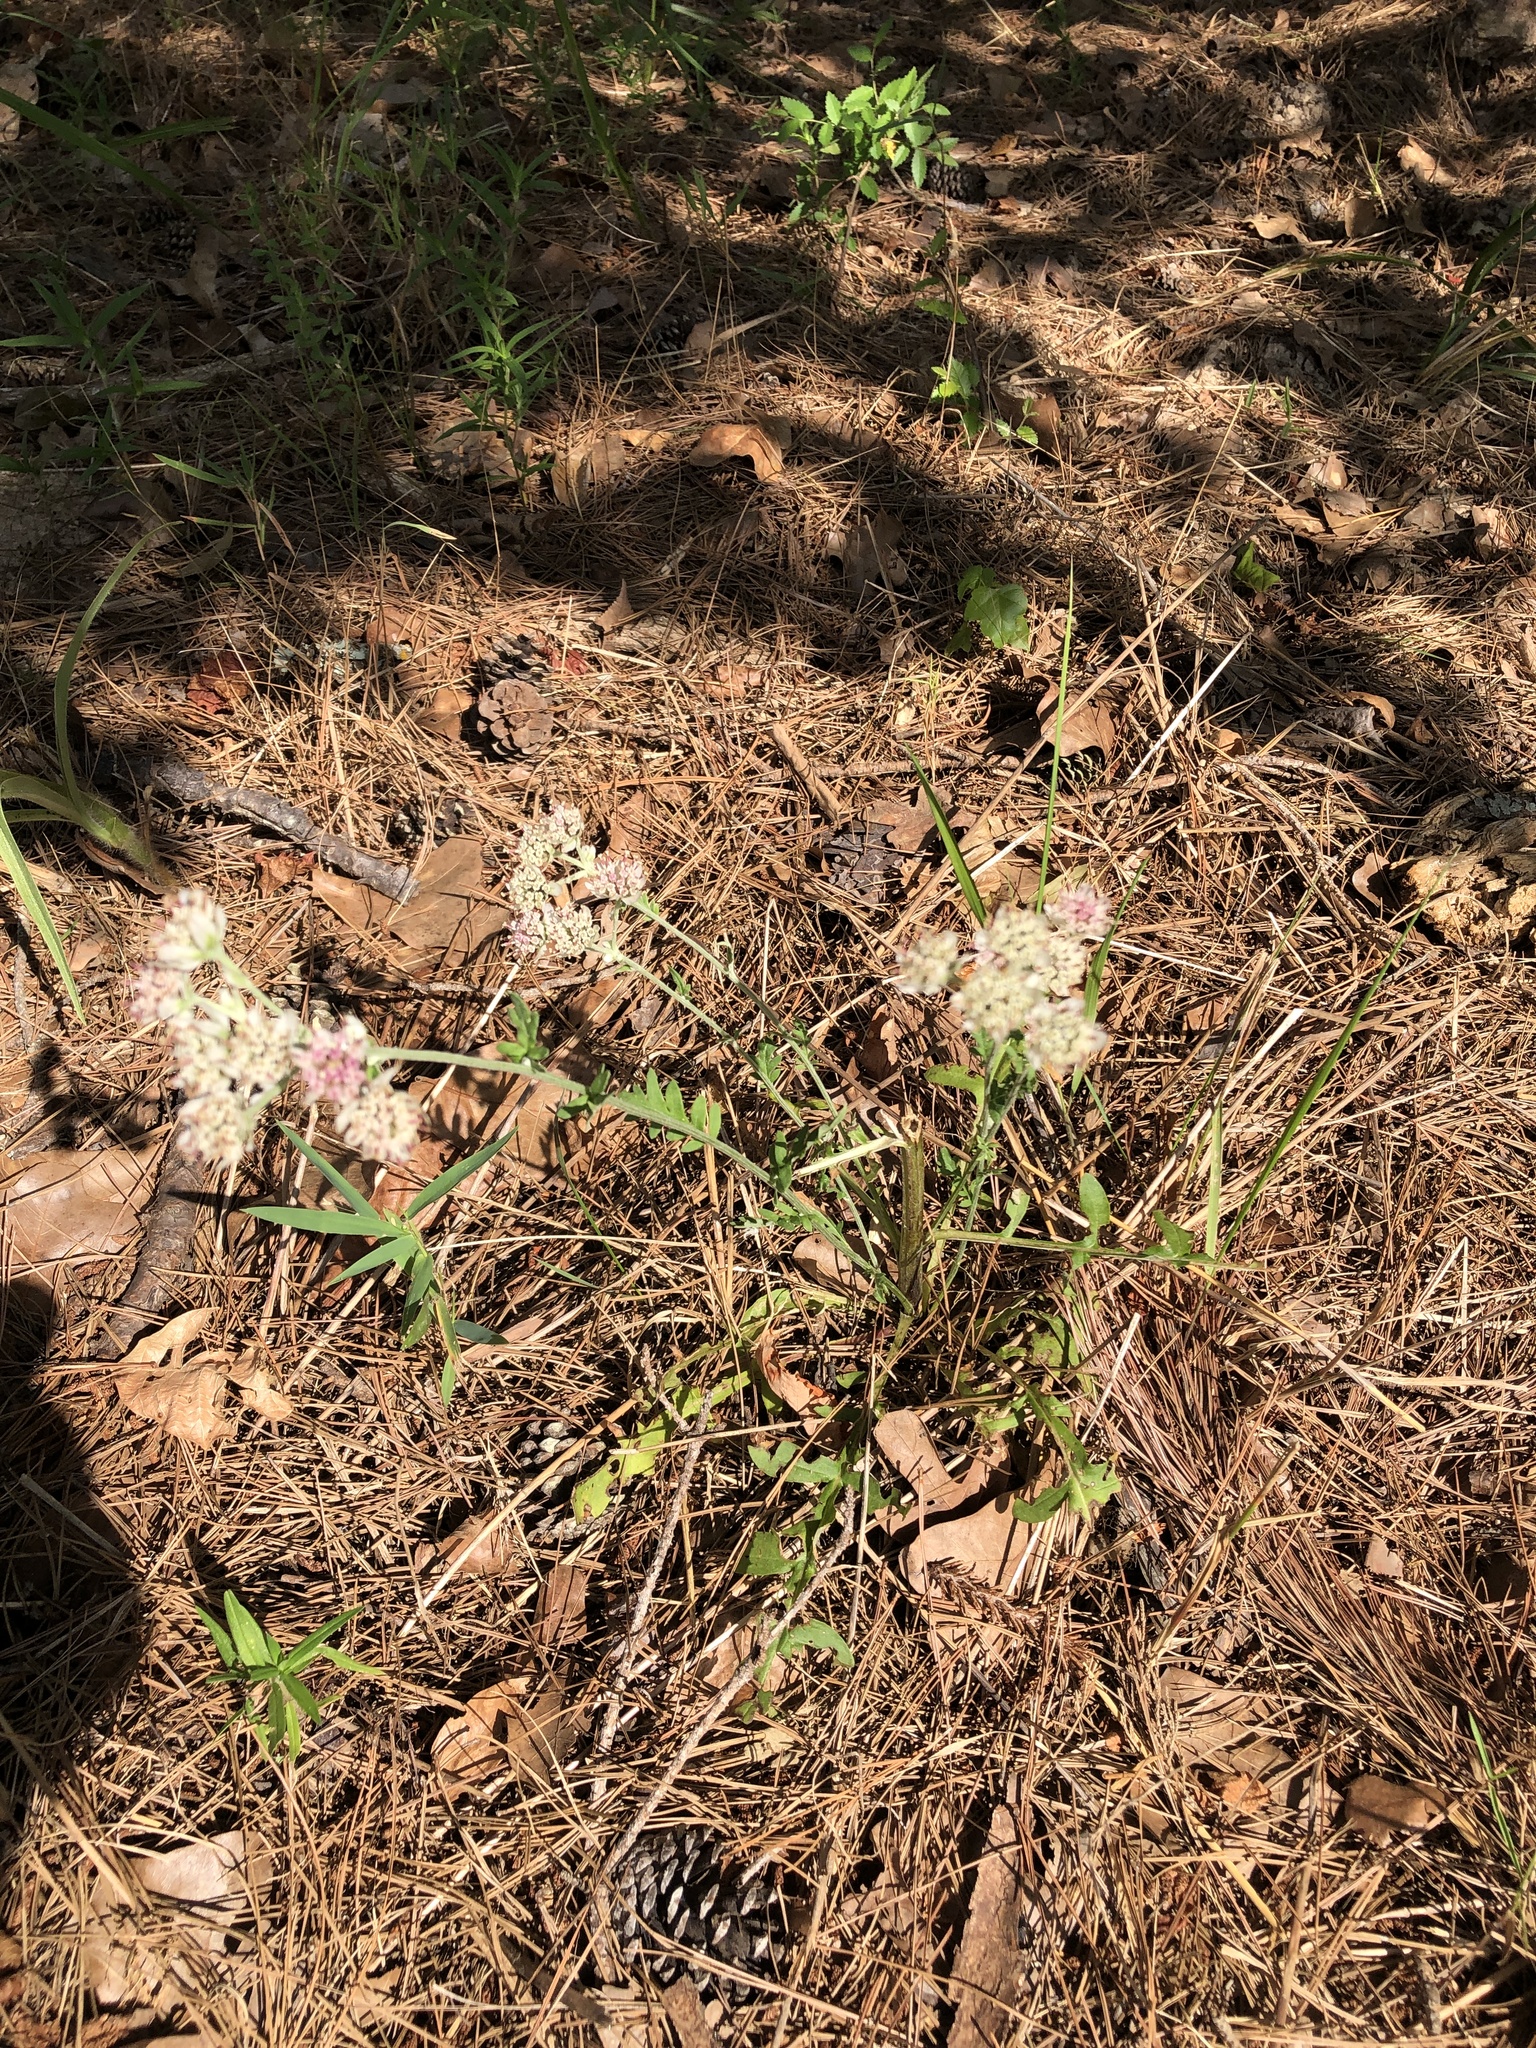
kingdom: Plantae
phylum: Tracheophyta
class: Magnoliopsida
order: Asterales
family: Asteraceae
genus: Hymenopappus
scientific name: Hymenopappus artemisiifolius
